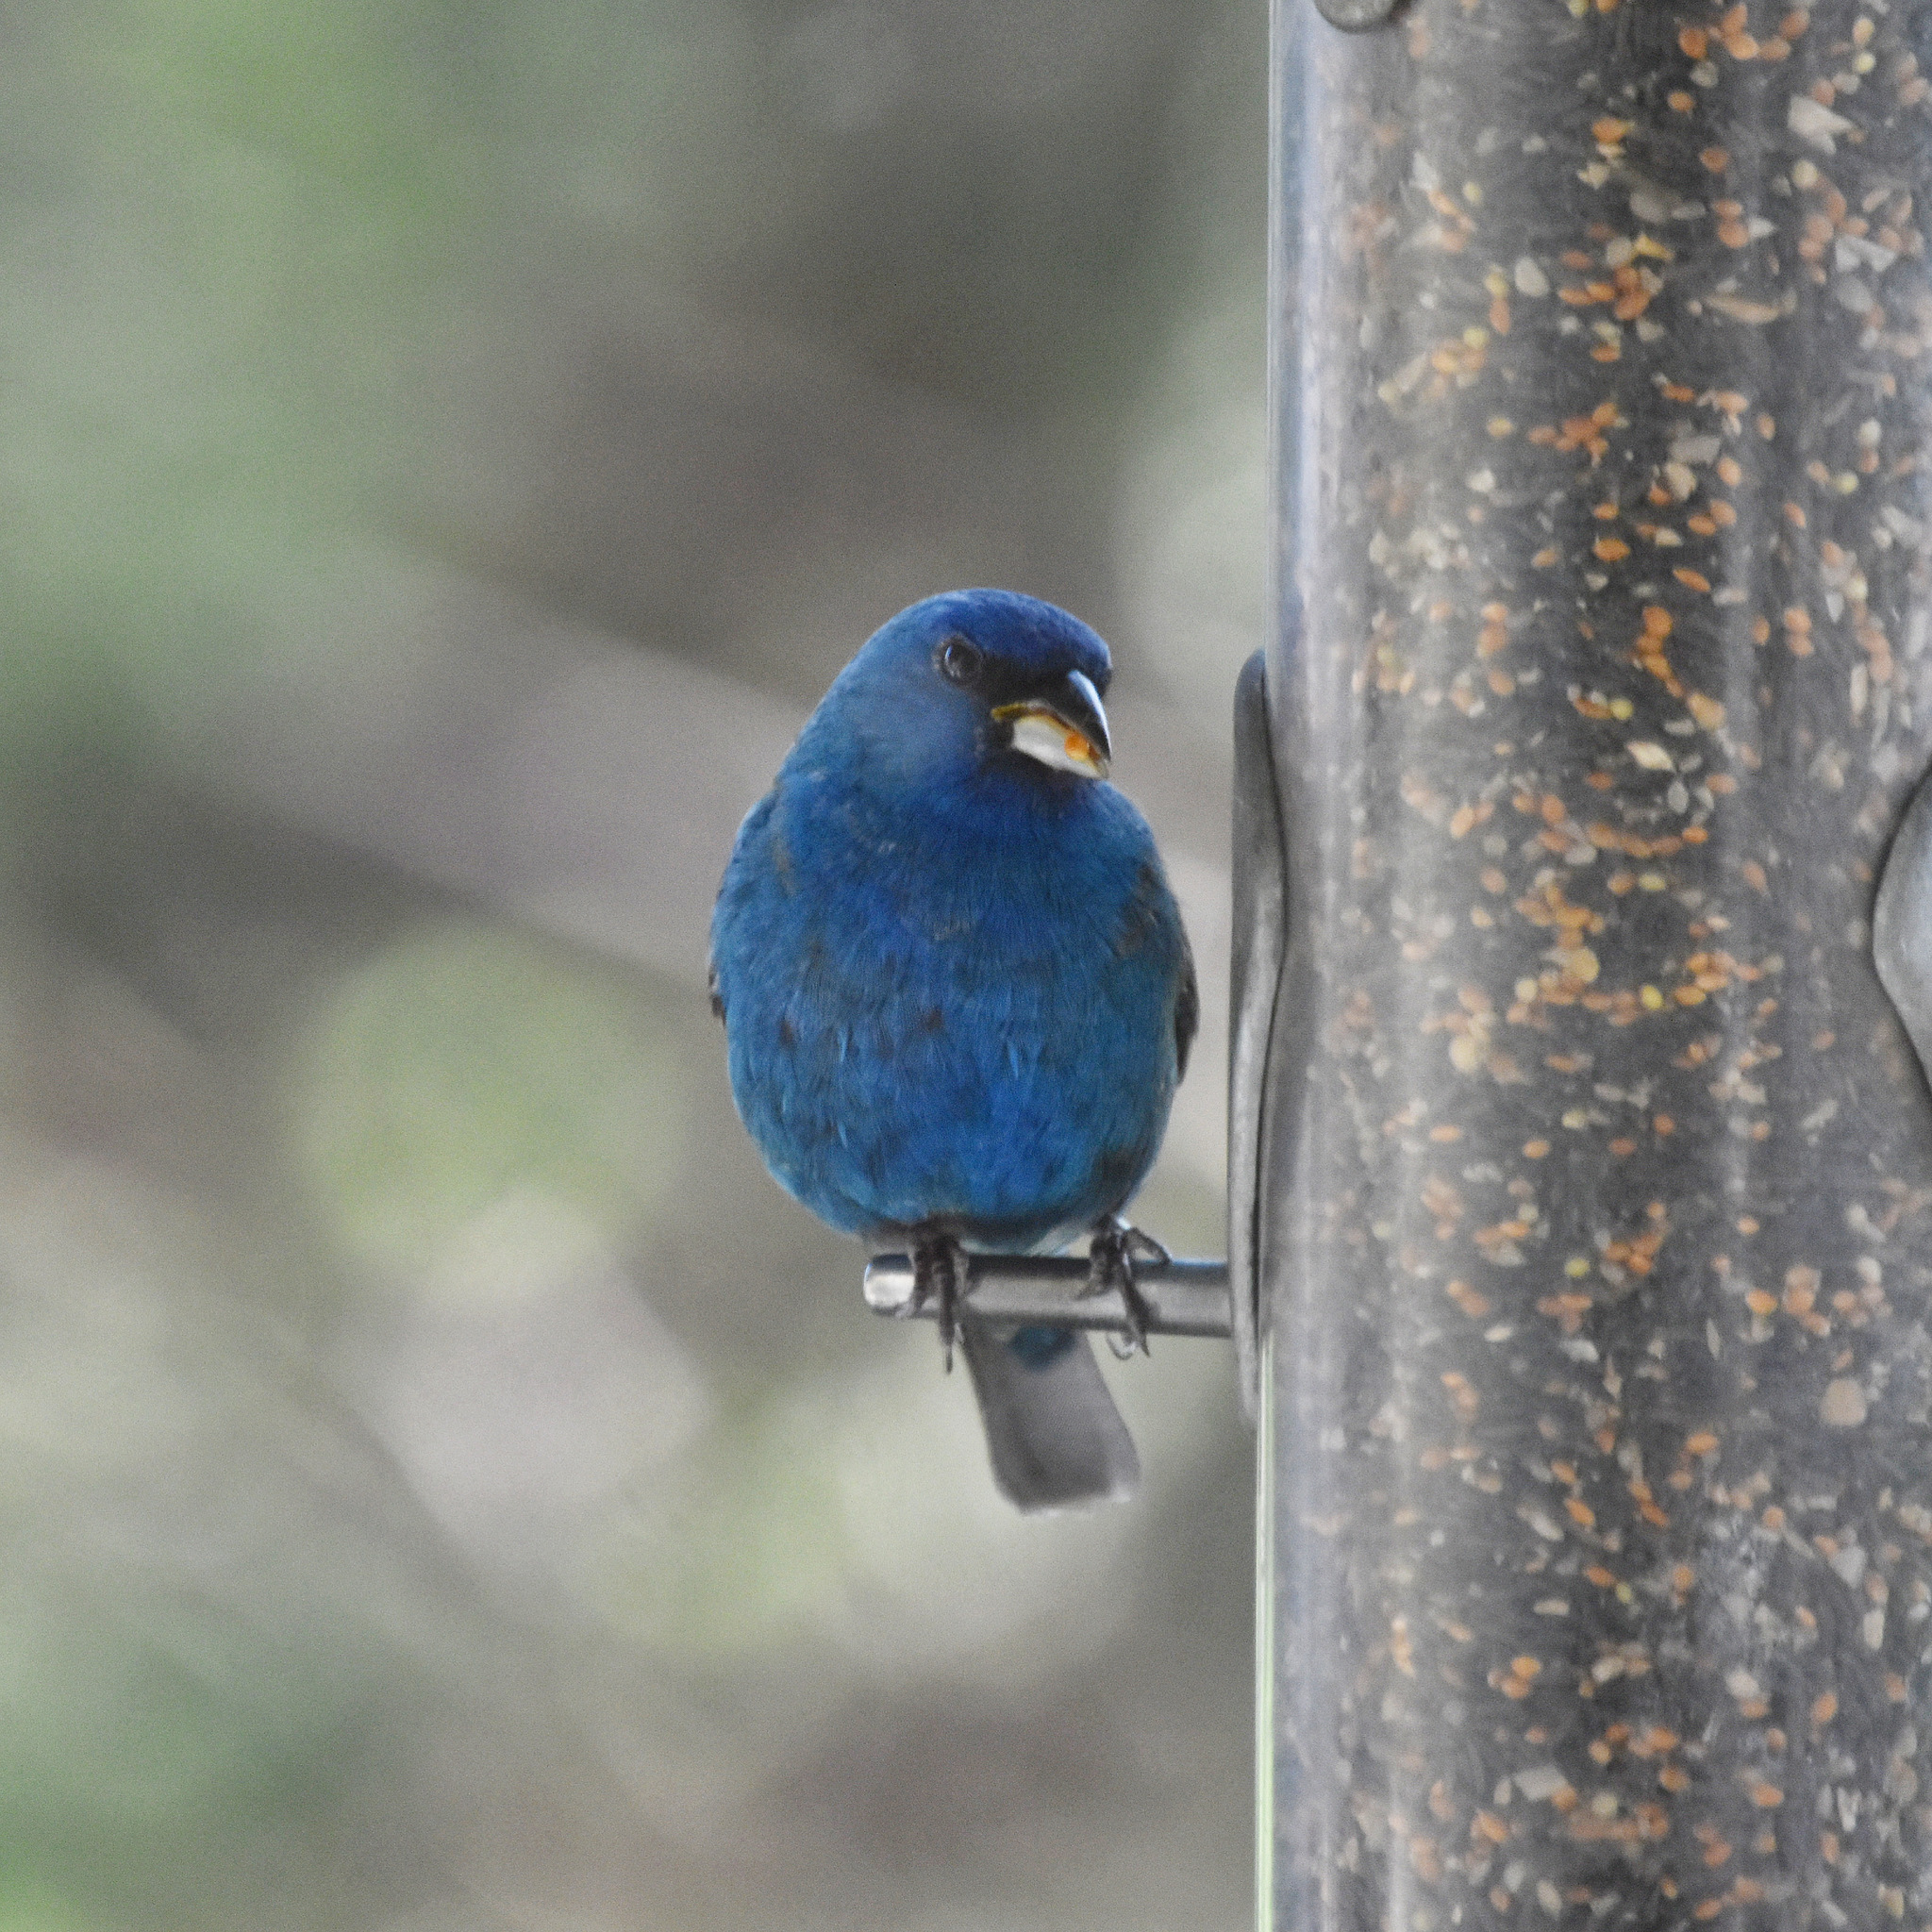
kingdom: Animalia
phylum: Chordata
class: Aves
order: Passeriformes
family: Cardinalidae
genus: Passerina
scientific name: Passerina cyanea
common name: Indigo bunting
